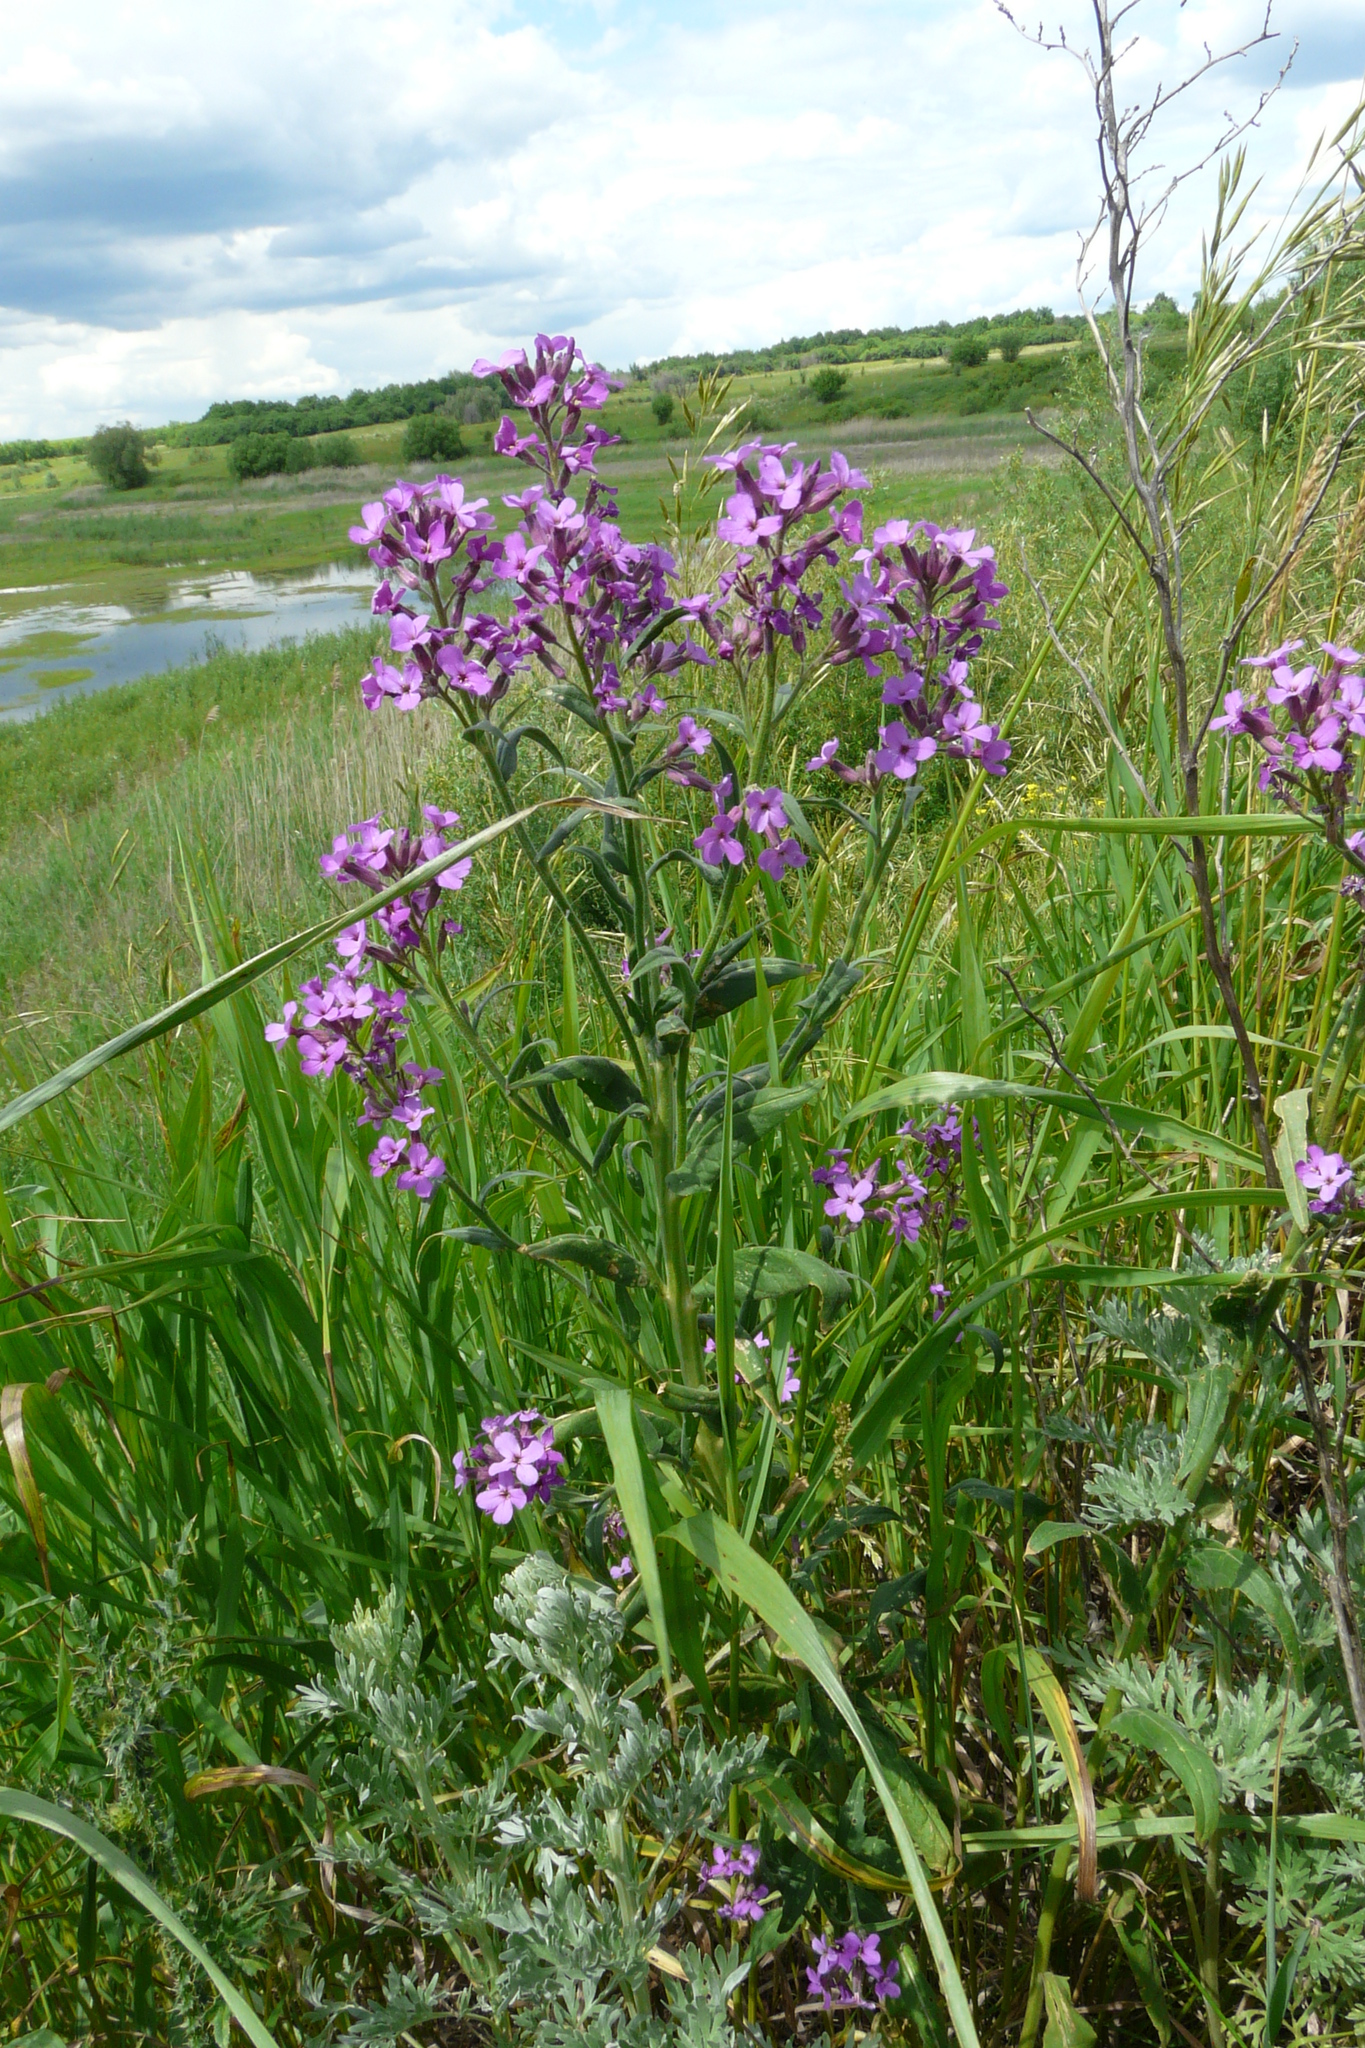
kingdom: Plantae
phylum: Tracheophyta
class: Magnoliopsida
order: Brassicales
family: Brassicaceae
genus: Hesperis
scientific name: Hesperis matronalis
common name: Dame's-violet
